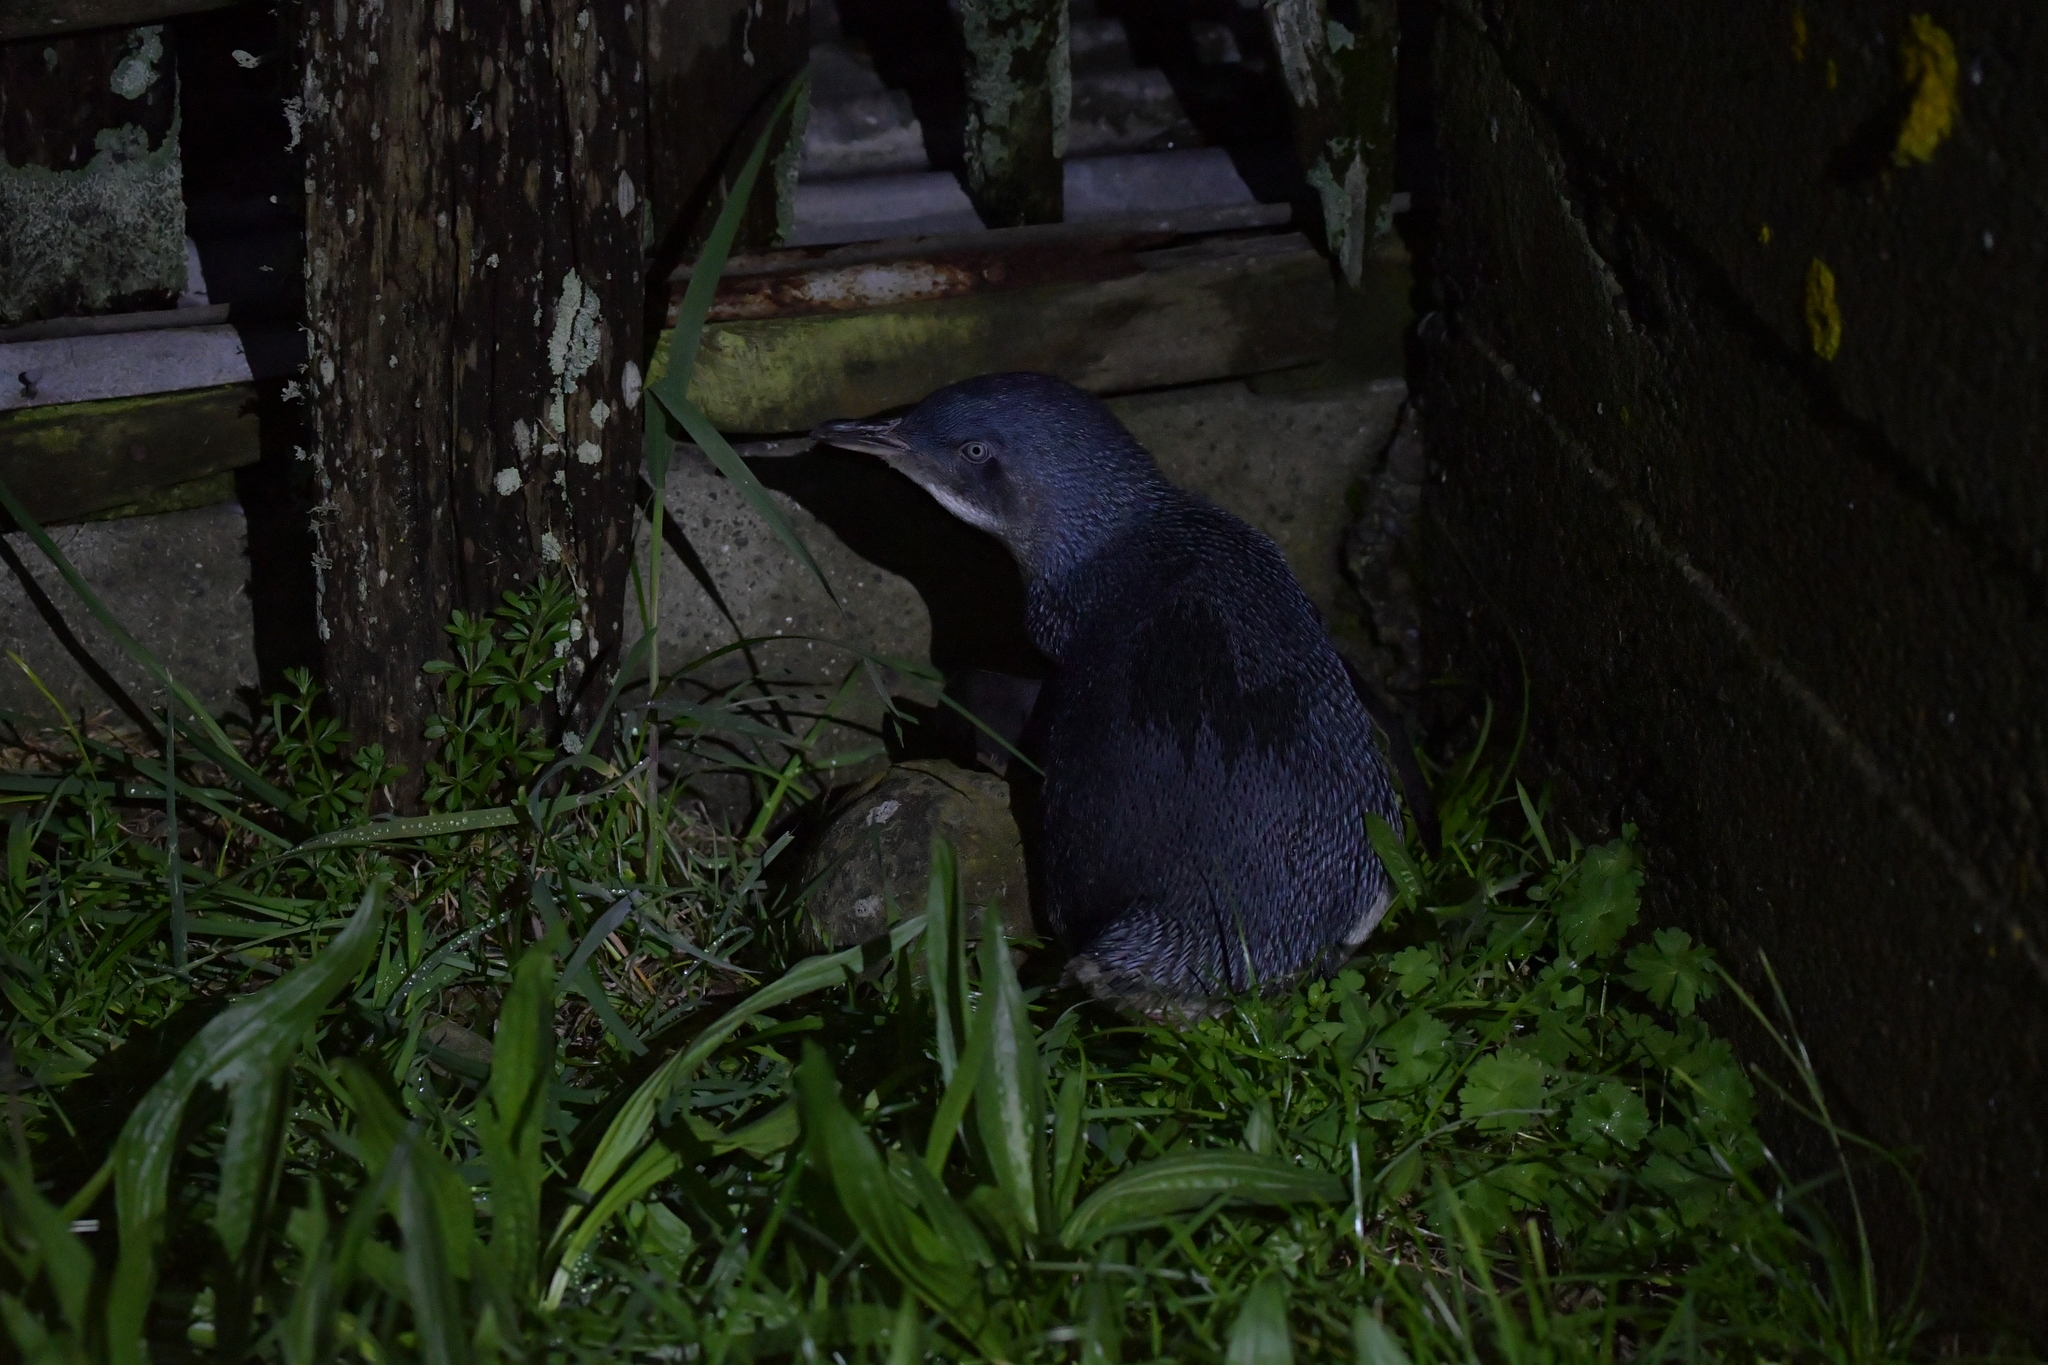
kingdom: Animalia
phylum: Chordata
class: Aves
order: Sphenisciformes
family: Spheniscidae
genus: Eudyptula
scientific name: Eudyptula minor
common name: Little penguin
